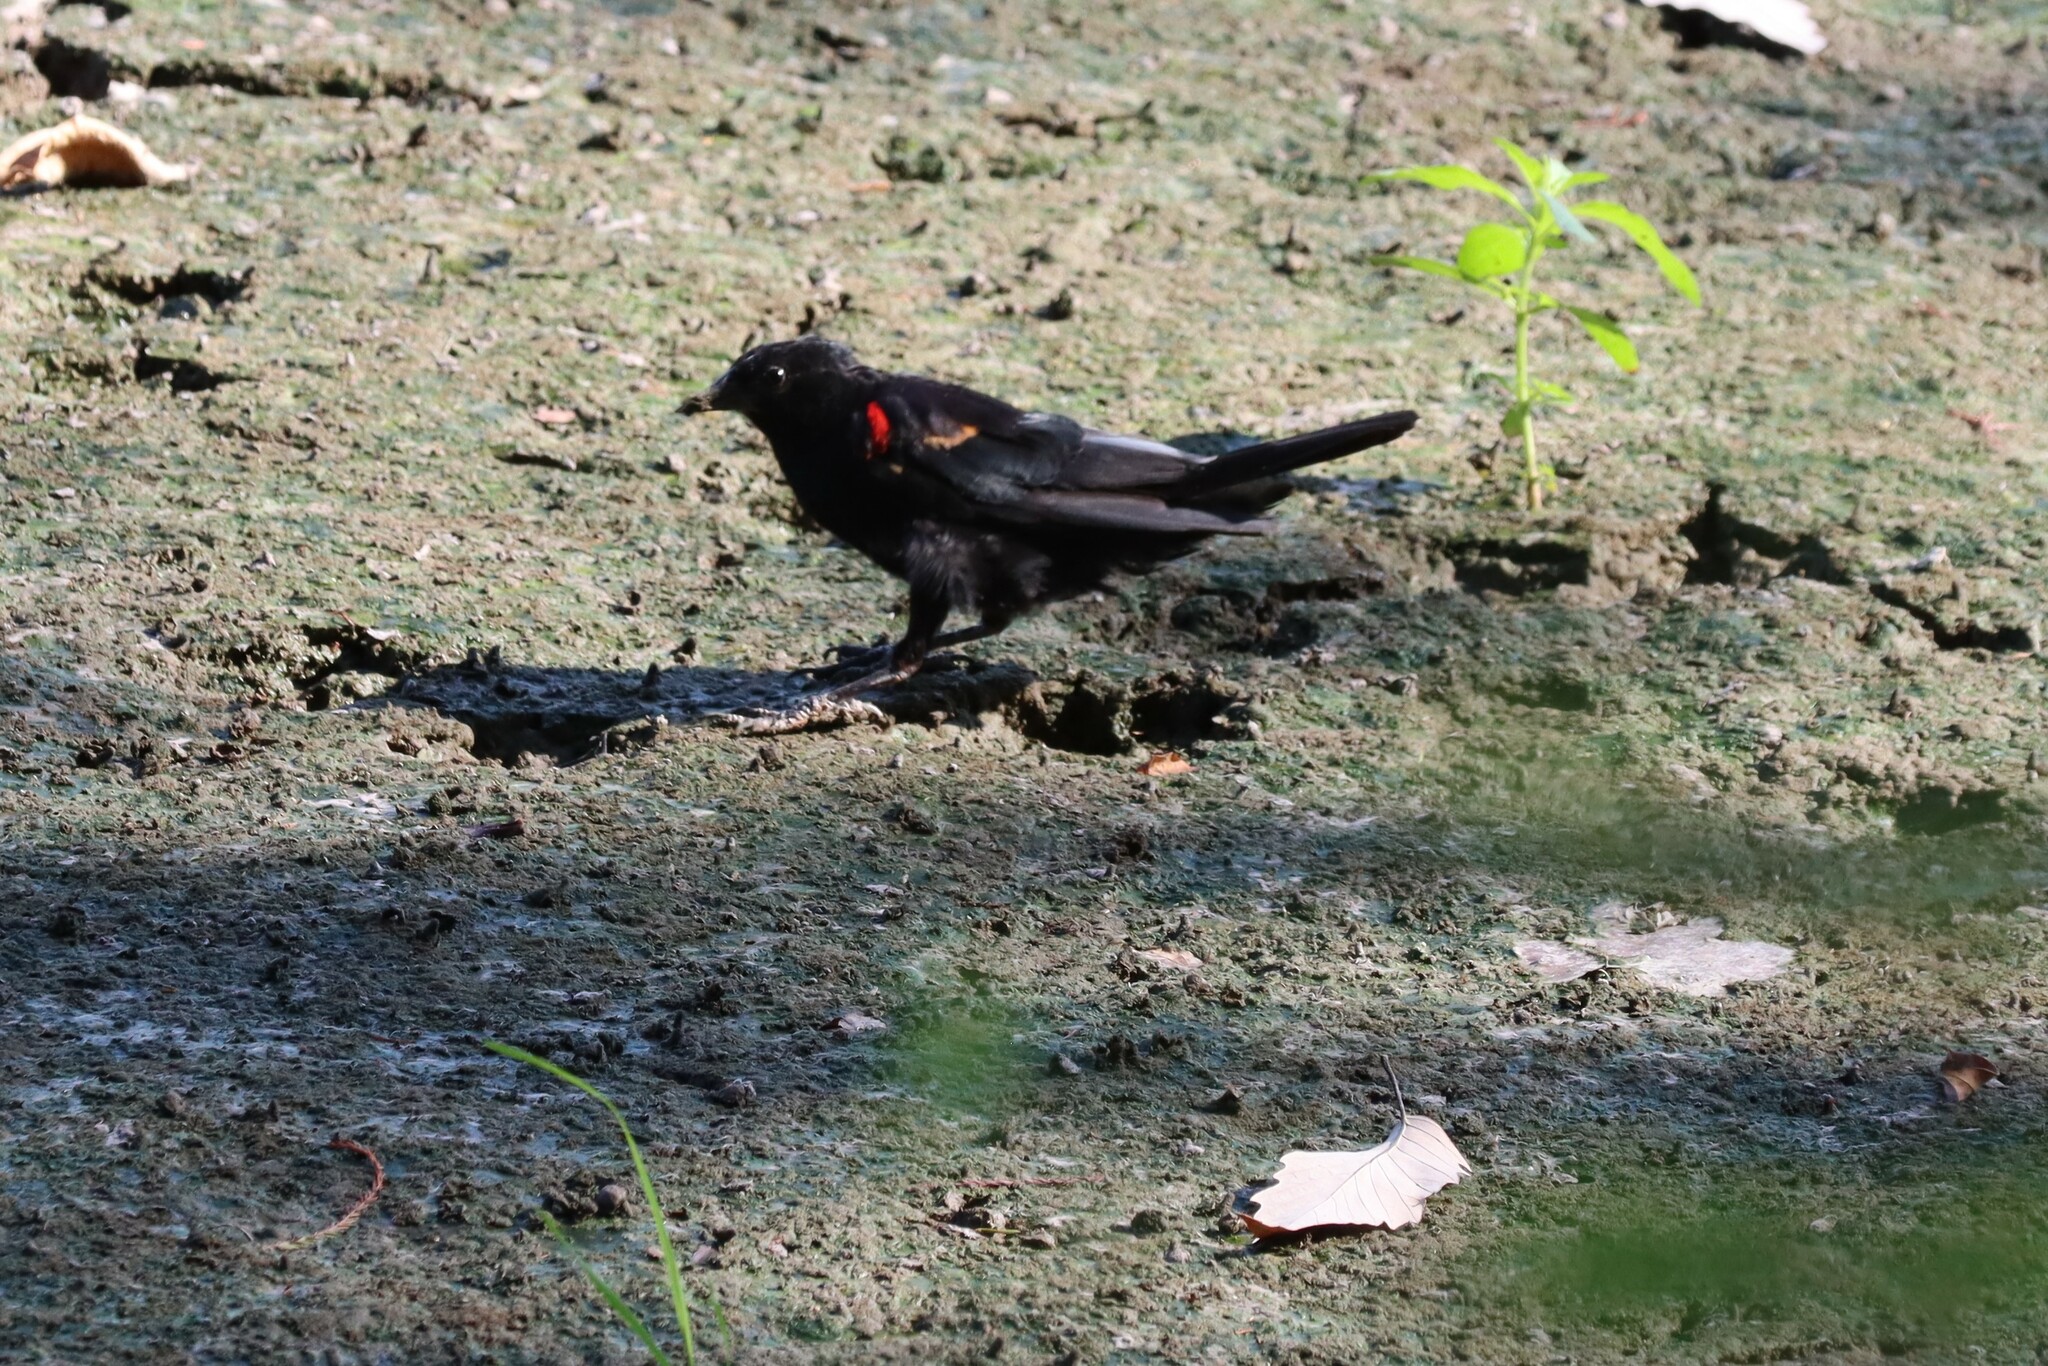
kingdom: Animalia
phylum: Chordata
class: Aves
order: Passeriformes
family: Icteridae
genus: Agelaius
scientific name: Agelaius phoeniceus
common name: Red-winged blackbird
